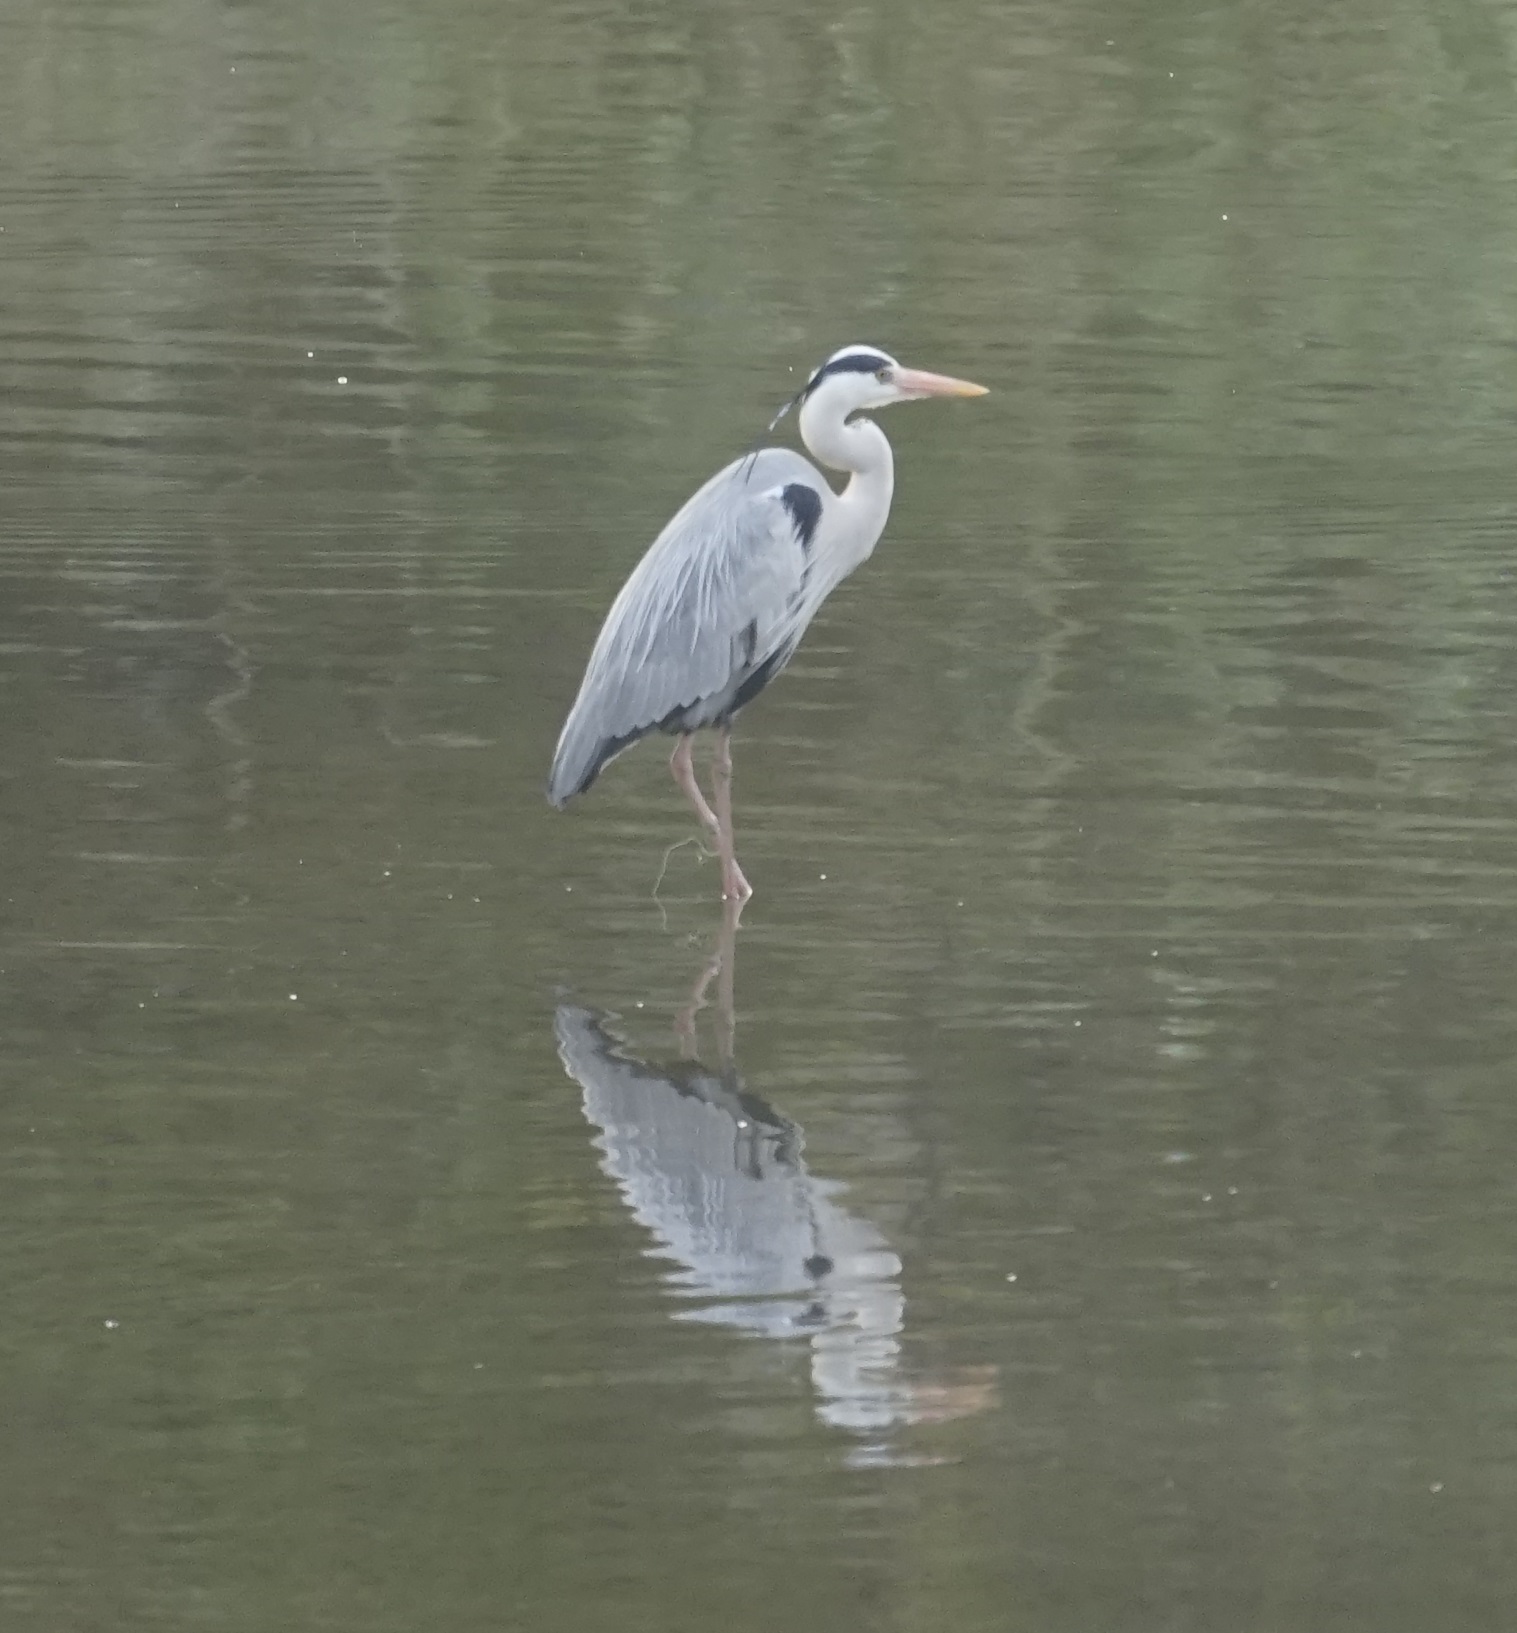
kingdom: Animalia
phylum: Chordata
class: Aves
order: Pelecaniformes
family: Ardeidae
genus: Ardea
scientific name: Ardea cinerea
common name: Grey heron
